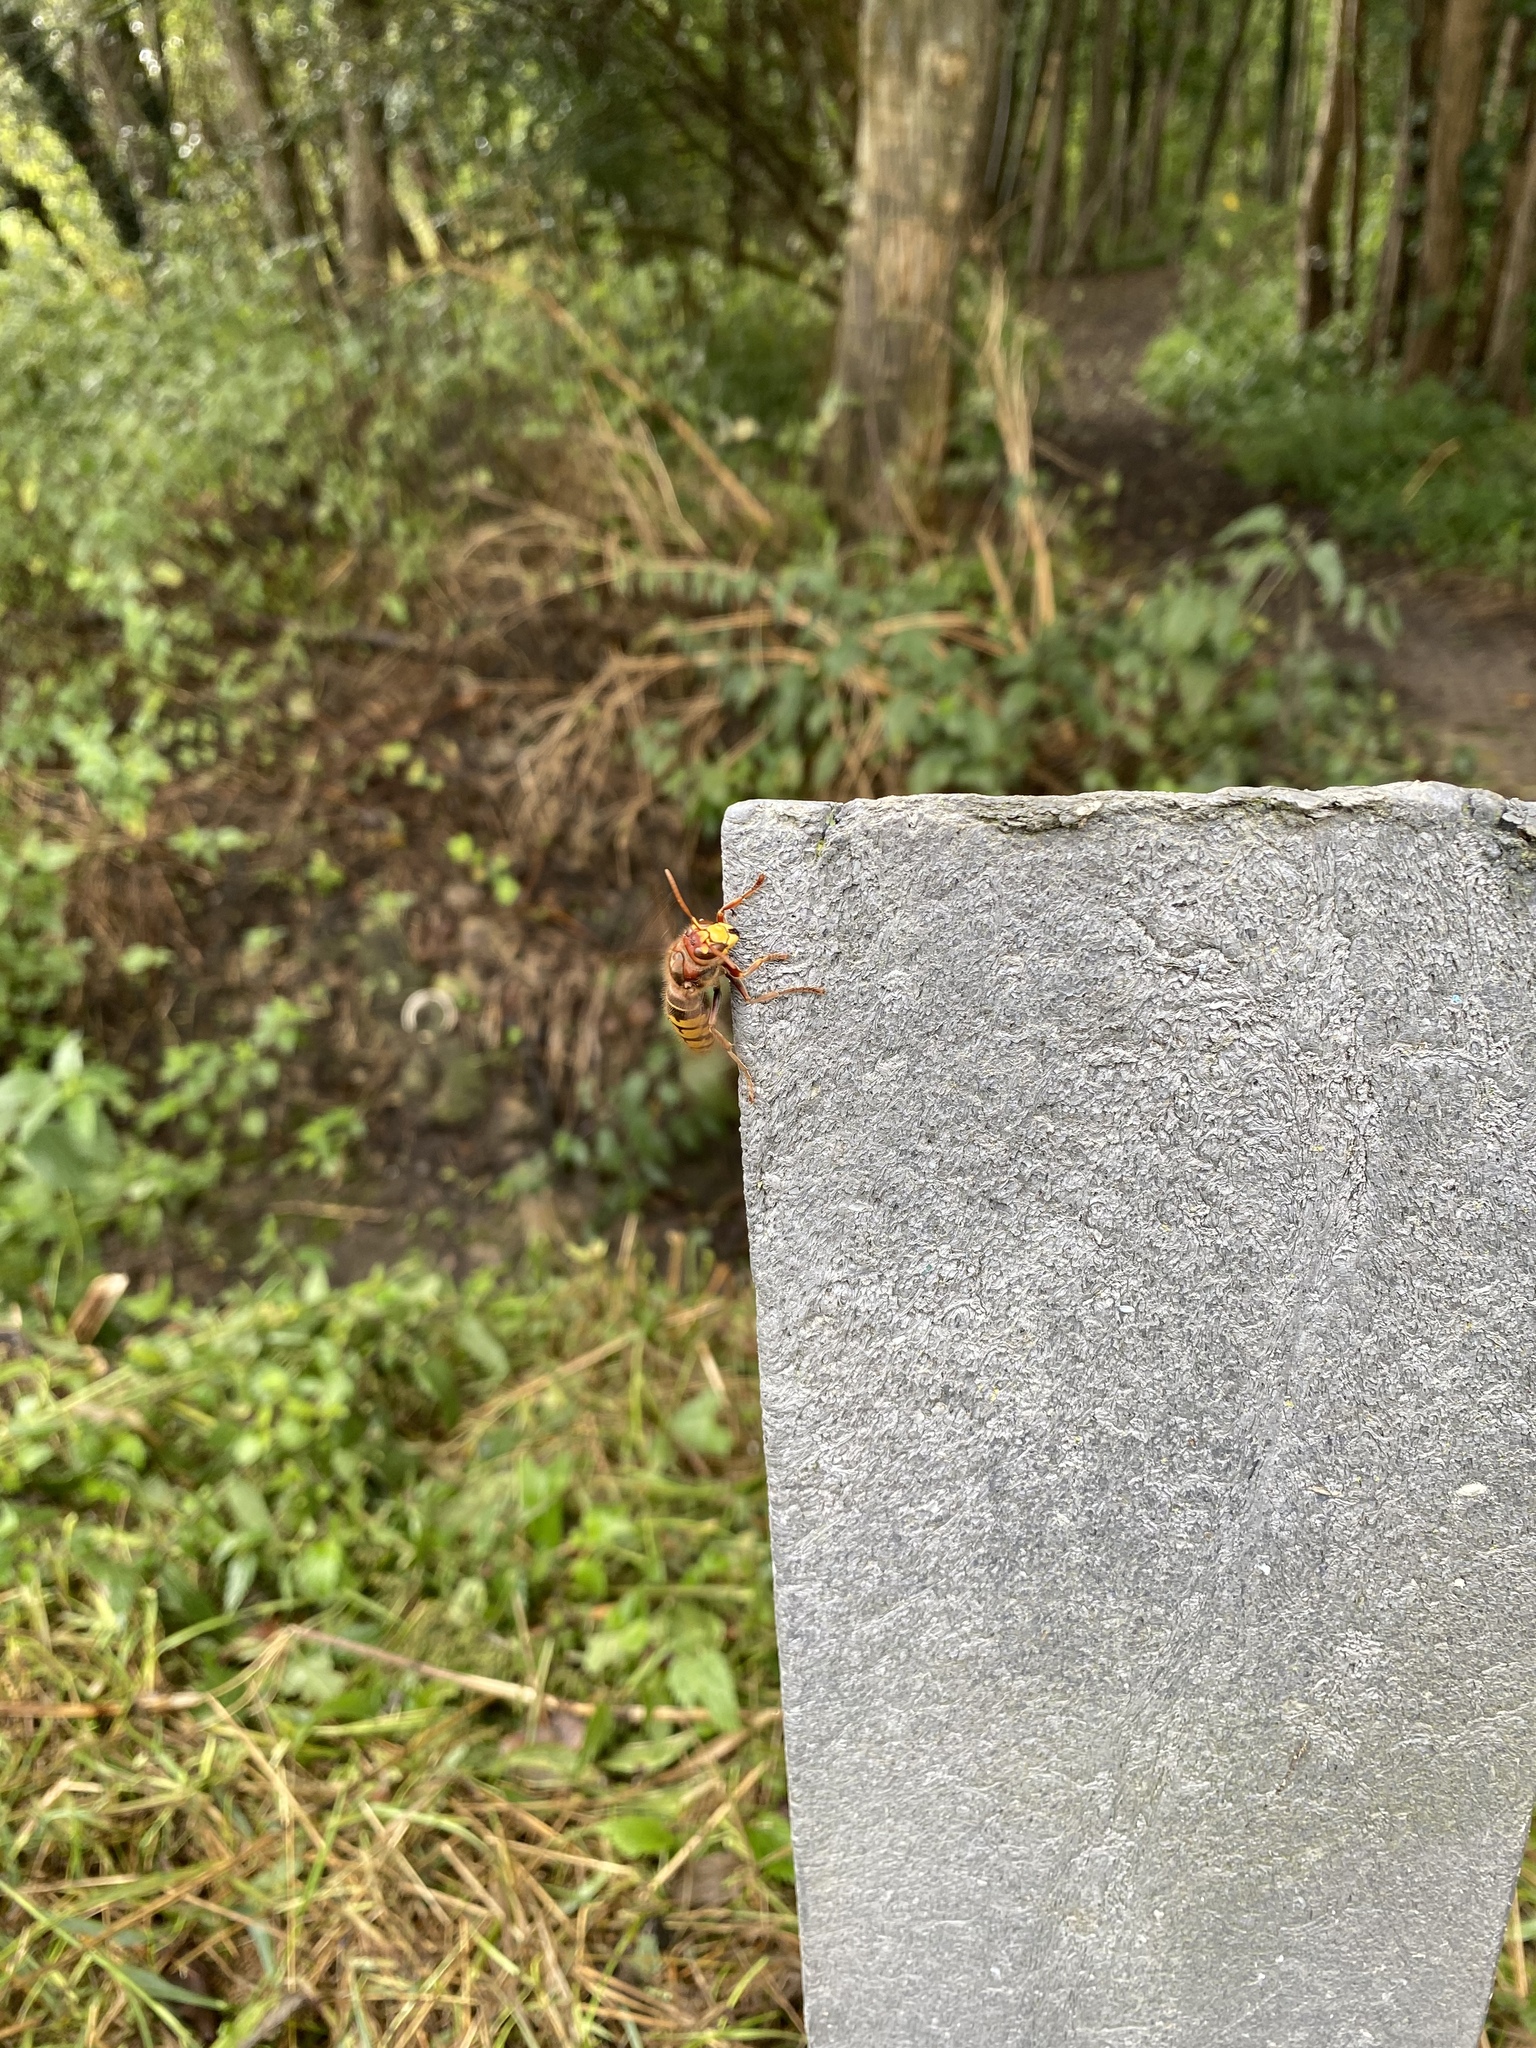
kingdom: Animalia
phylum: Arthropoda
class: Insecta
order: Hymenoptera
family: Vespidae
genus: Vespa
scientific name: Vespa crabro
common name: Hornet
